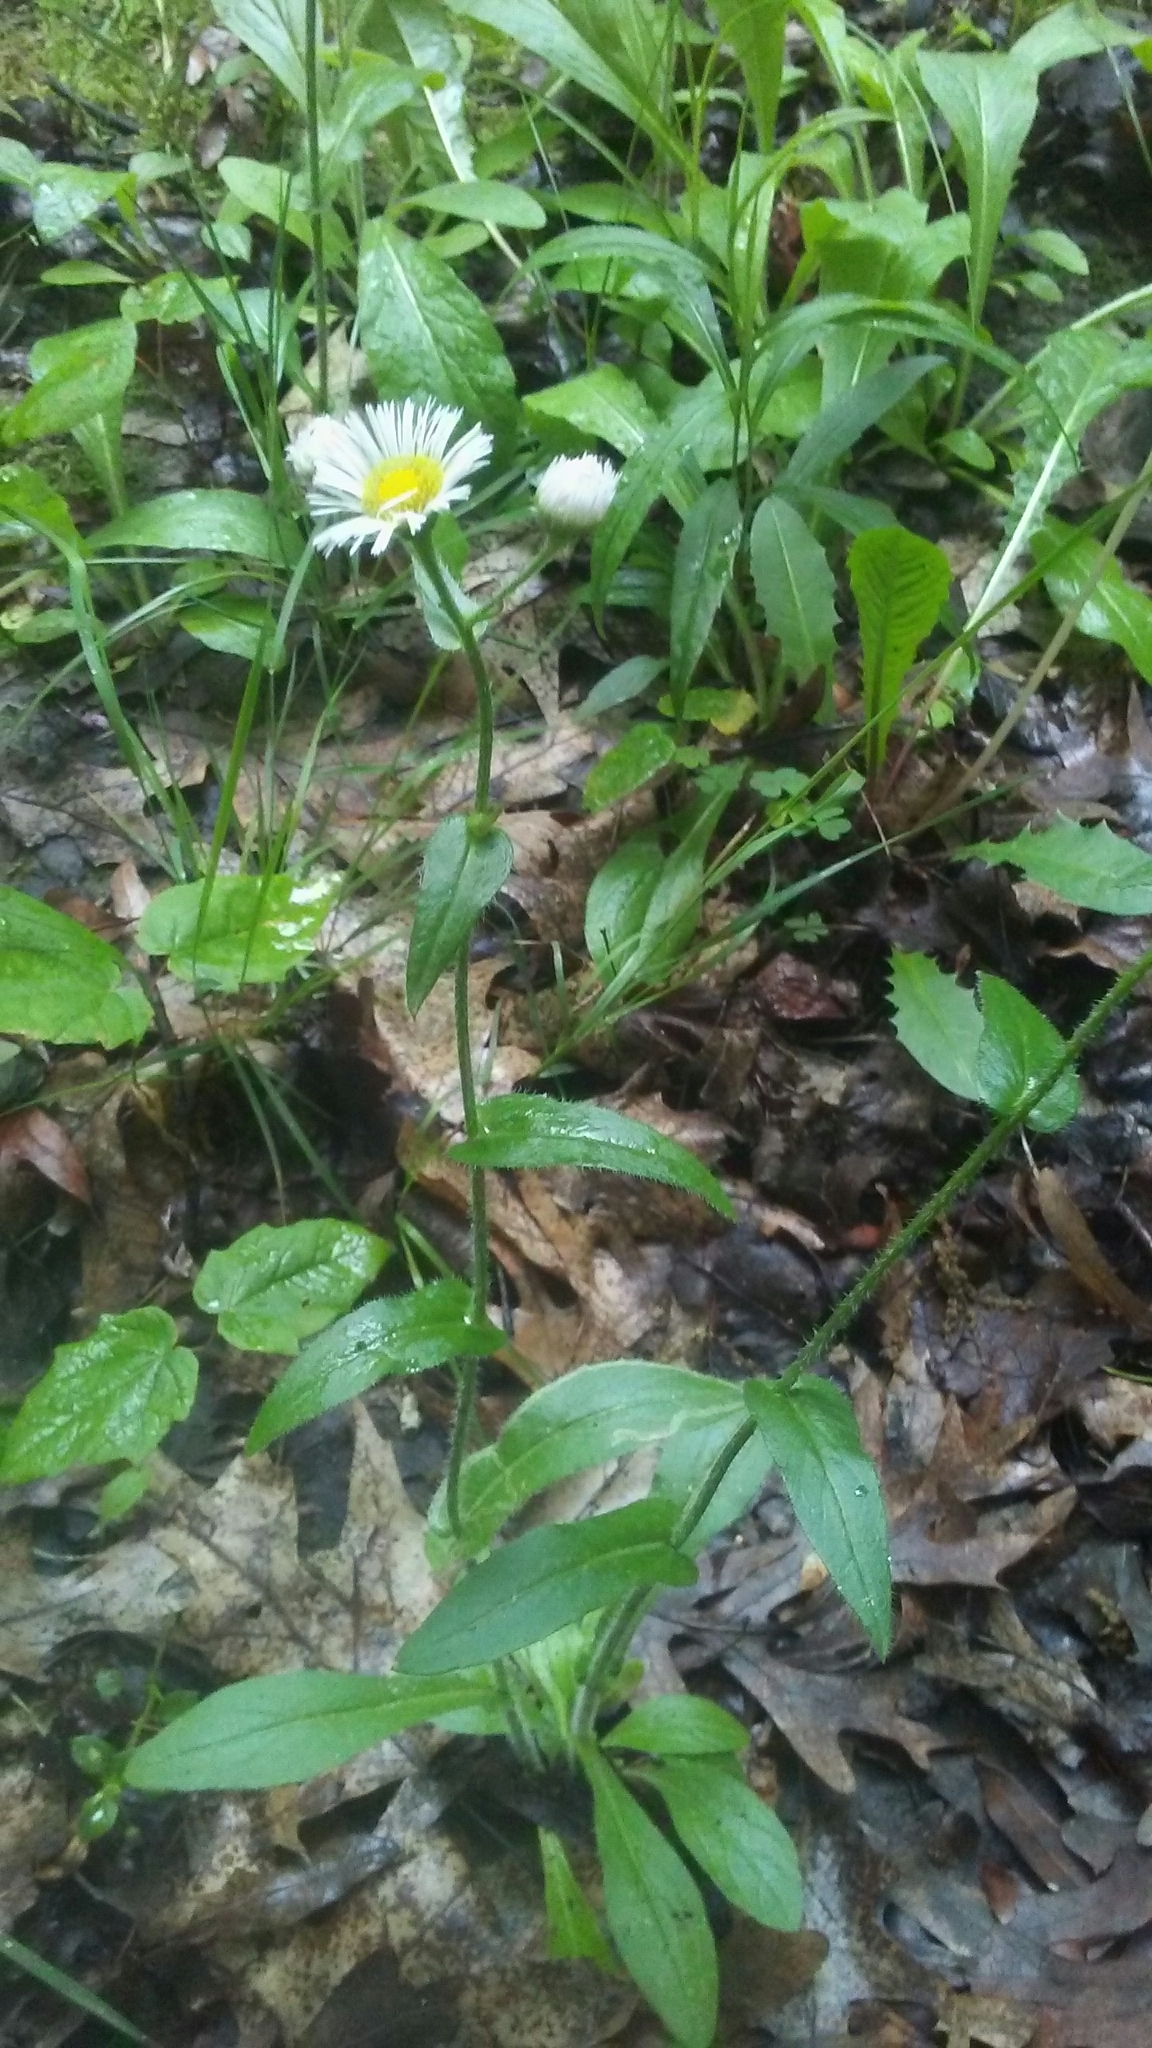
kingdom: Plantae
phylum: Tracheophyta
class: Magnoliopsida
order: Asterales
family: Asteraceae
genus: Erigeron
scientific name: Erigeron philadelphicus
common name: Robin's-plantain
